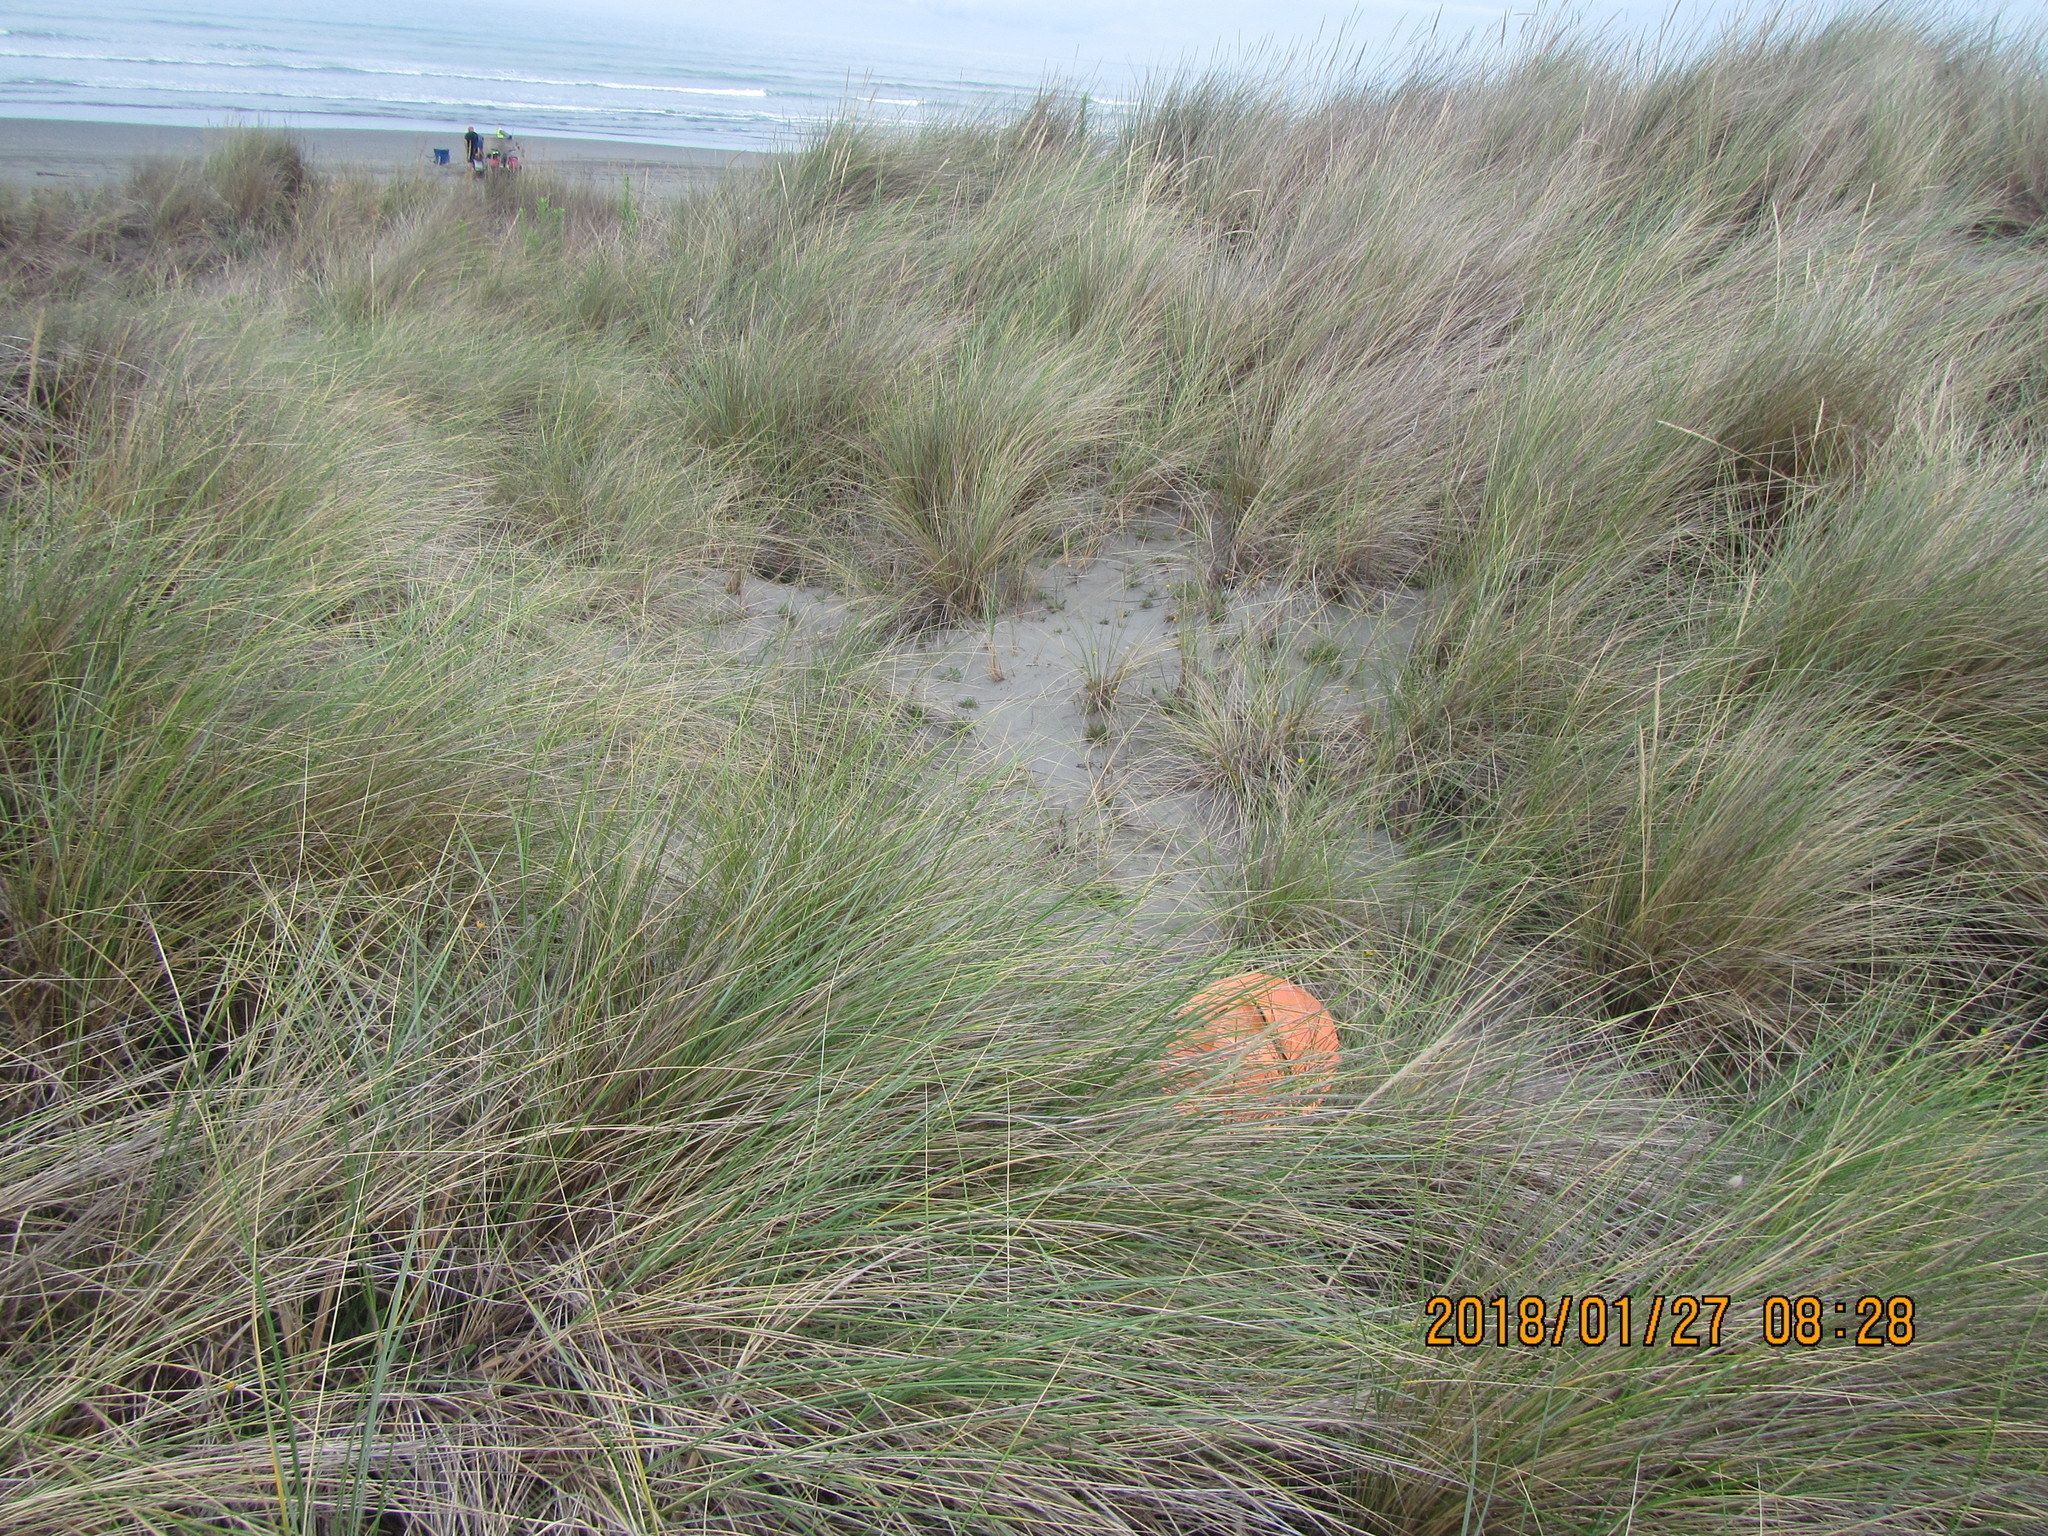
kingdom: Animalia
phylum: Arthropoda
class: Arachnida
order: Araneae
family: Theridiidae
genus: Steatoda
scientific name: Steatoda lepida
